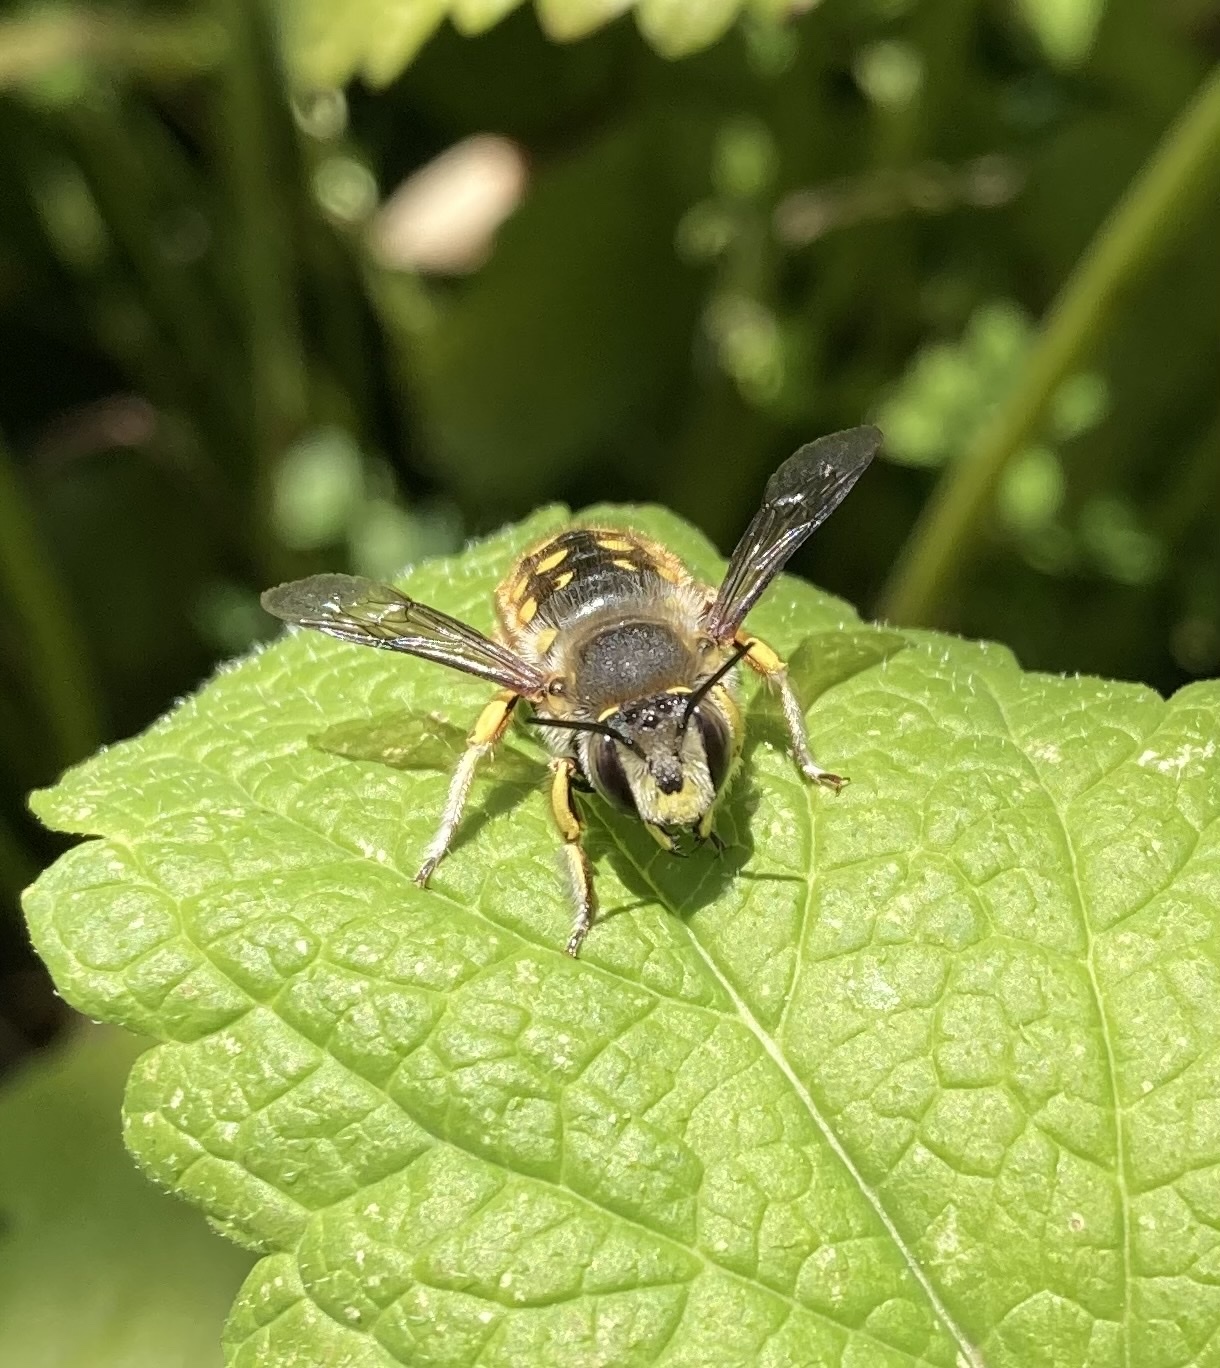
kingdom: Animalia
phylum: Arthropoda
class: Insecta
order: Hymenoptera
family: Megachilidae
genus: Anthidium
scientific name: Anthidium manicatum
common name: Wool carder bee
